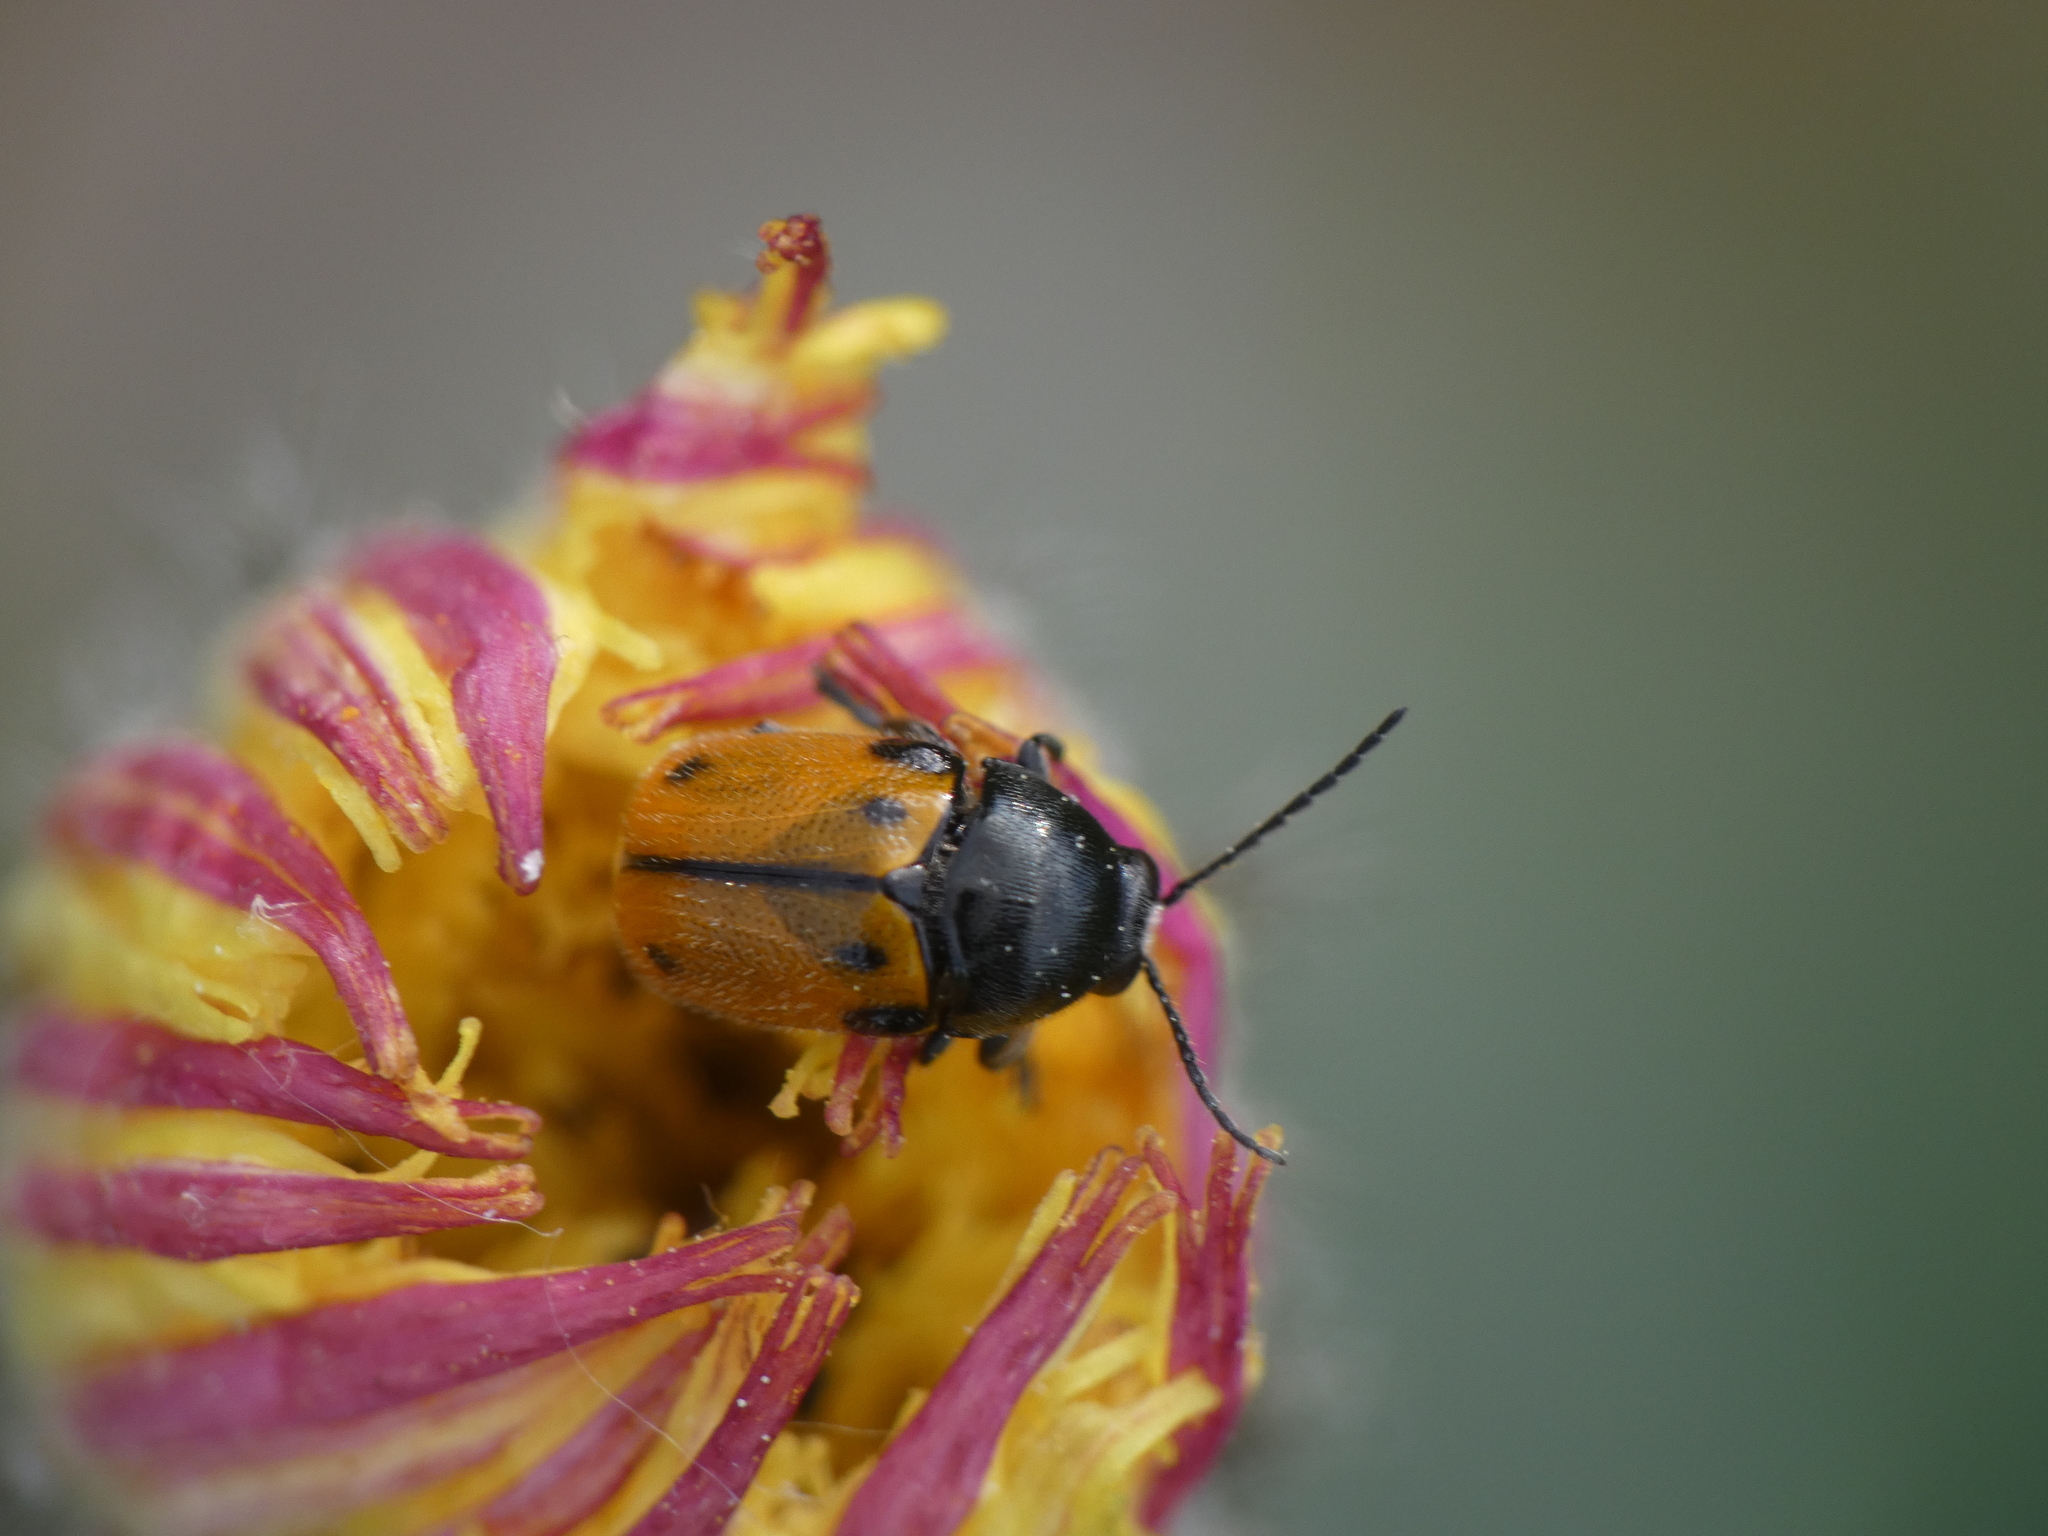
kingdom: Animalia
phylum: Arthropoda
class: Insecta
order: Coleoptera
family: Chrysomelidae
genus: Cryptocephalus
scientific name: Cryptocephalus rugicollis
